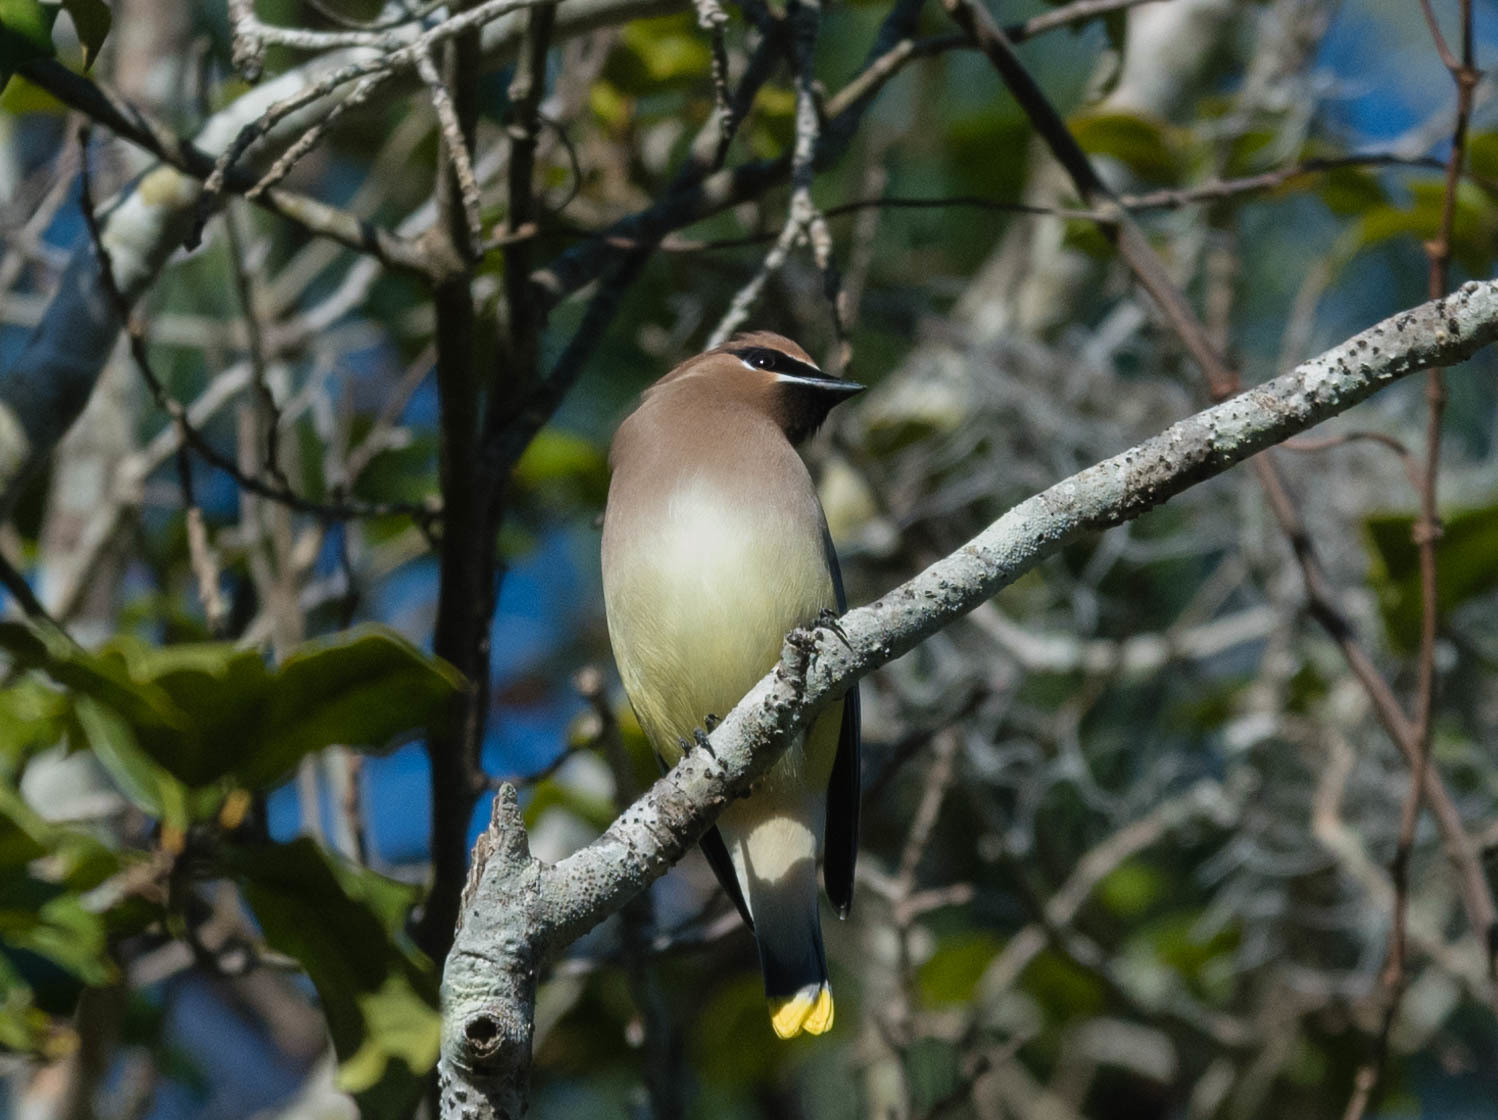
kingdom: Animalia
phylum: Chordata
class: Aves
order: Passeriformes
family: Bombycillidae
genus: Bombycilla
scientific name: Bombycilla cedrorum
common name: Cedar waxwing
